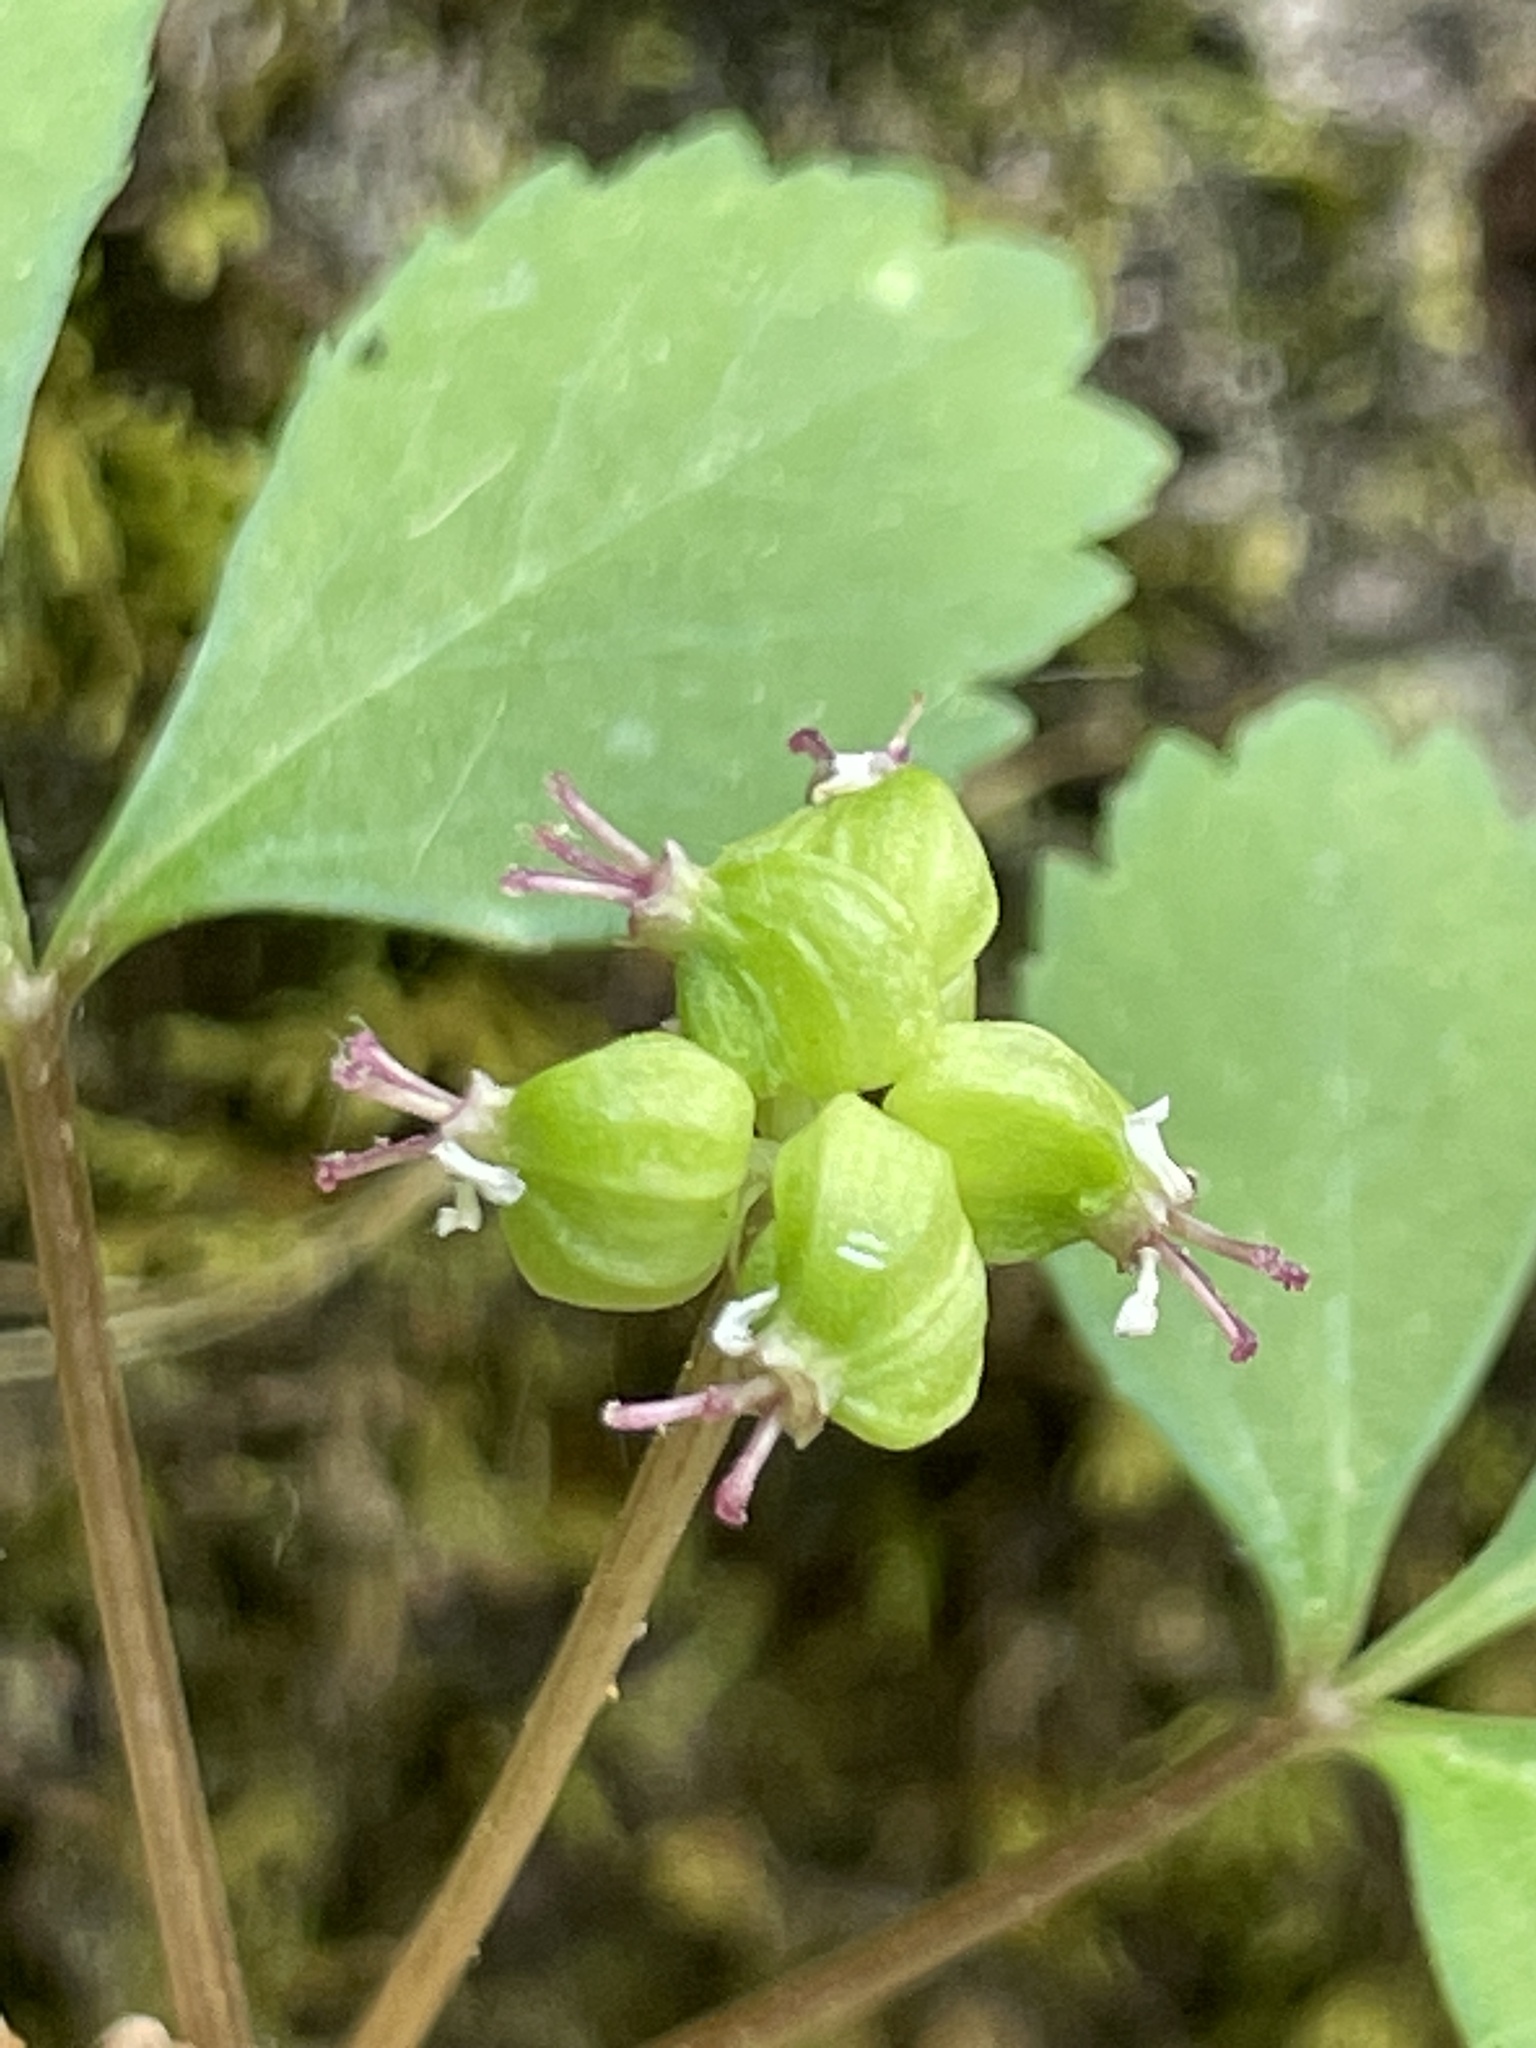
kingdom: Plantae
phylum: Tracheophyta
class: Magnoliopsida
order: Apiales
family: Araliaceae
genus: Panax
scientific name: Panax trifolius
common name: Dwarf ginseng
